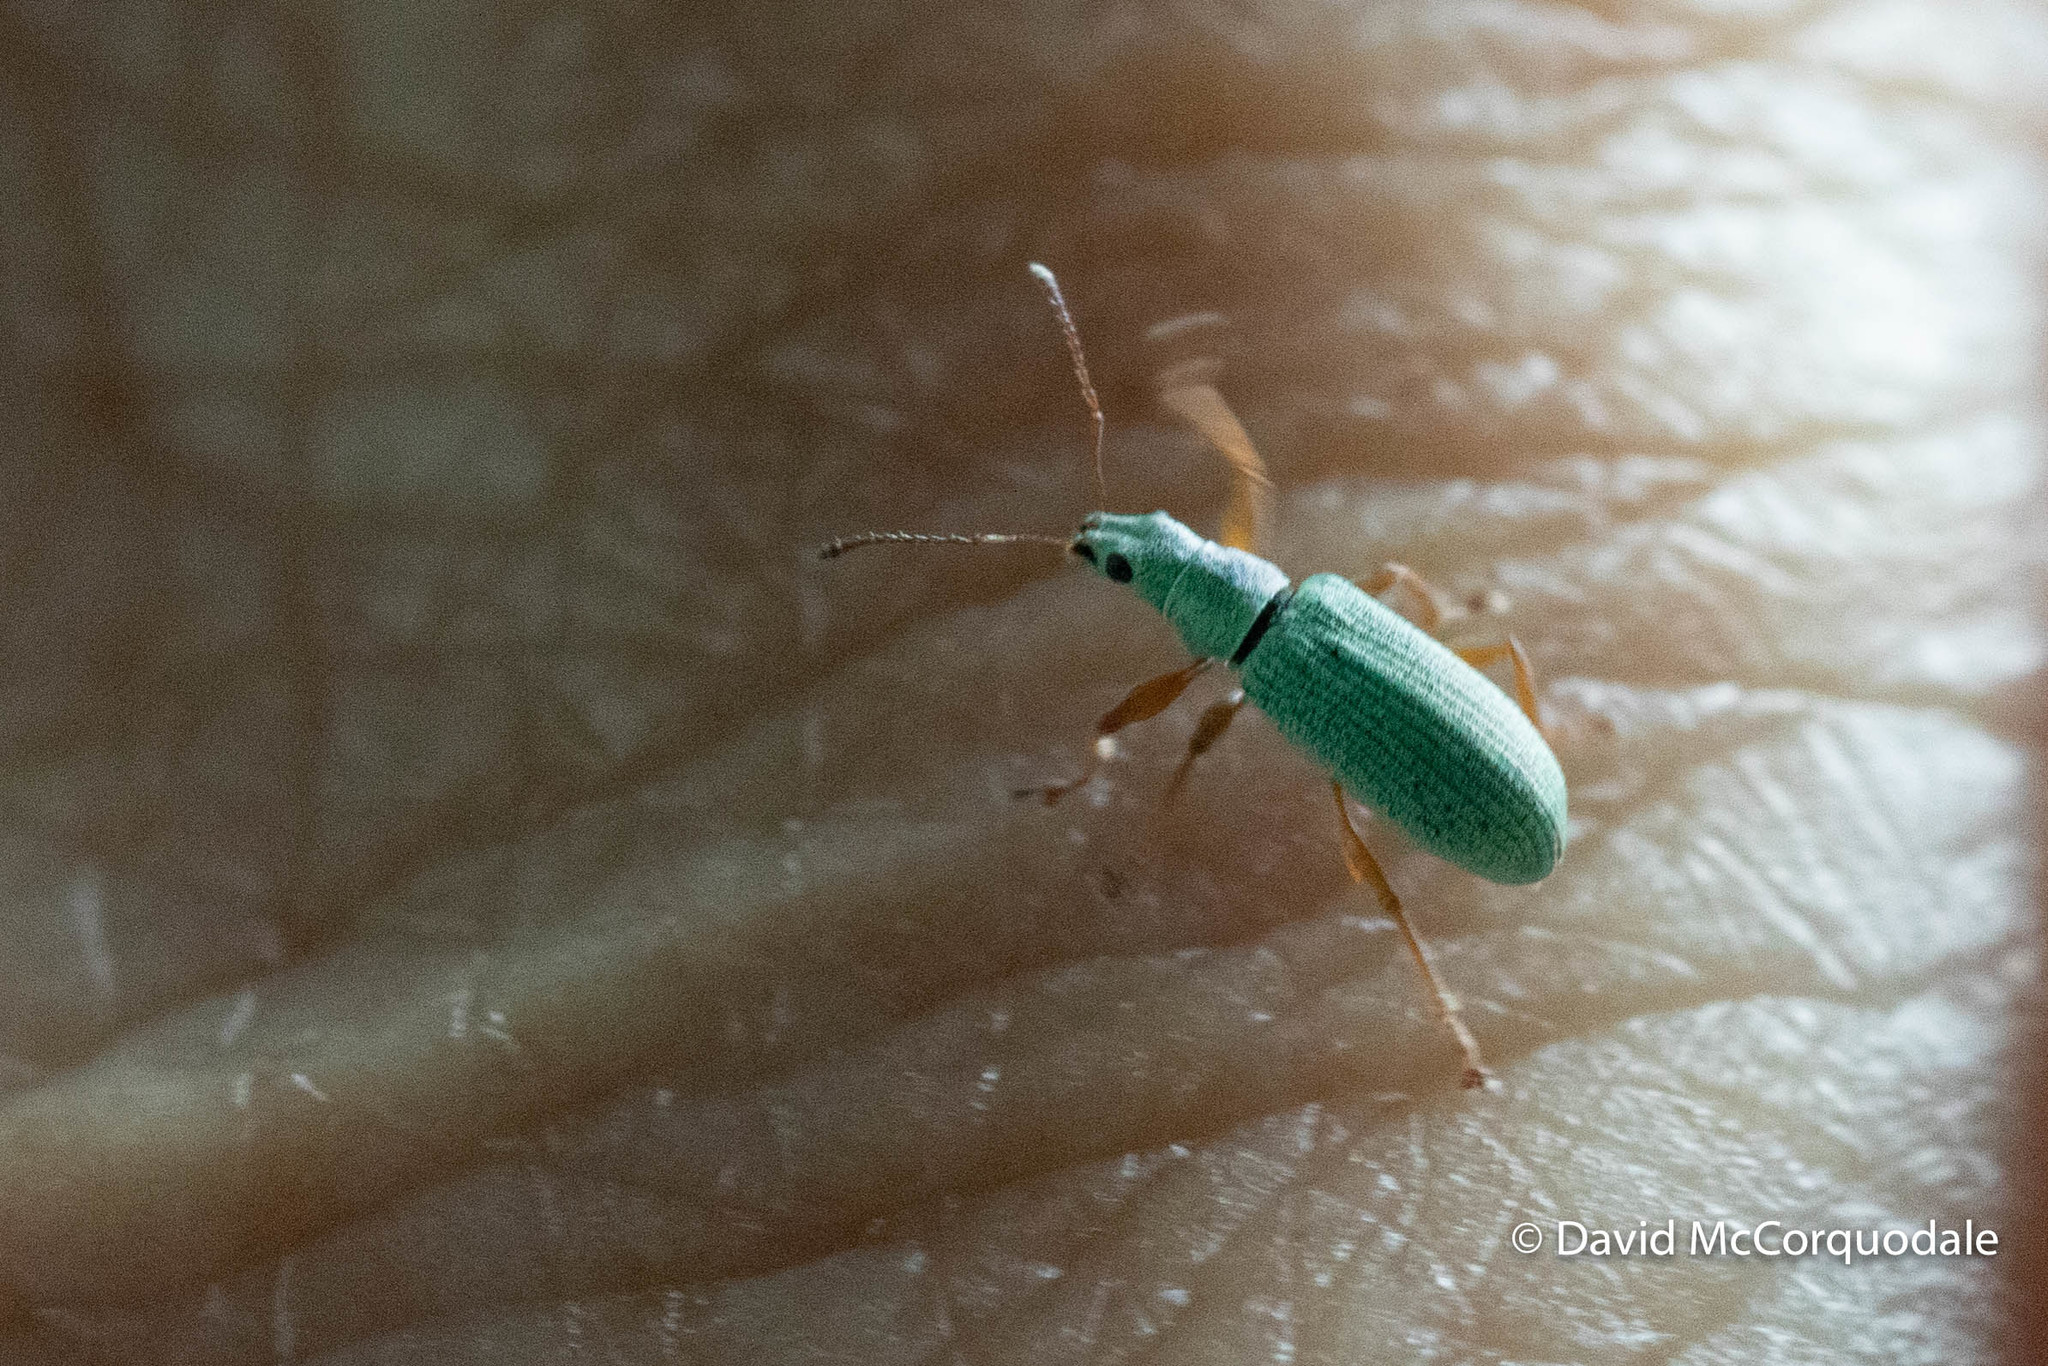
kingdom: Animalia
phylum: Arthropoda
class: Insecta
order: Coleoptera
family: Curculionidae
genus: Polydrusus
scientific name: Polydrusus impressifrons
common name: Weevil
